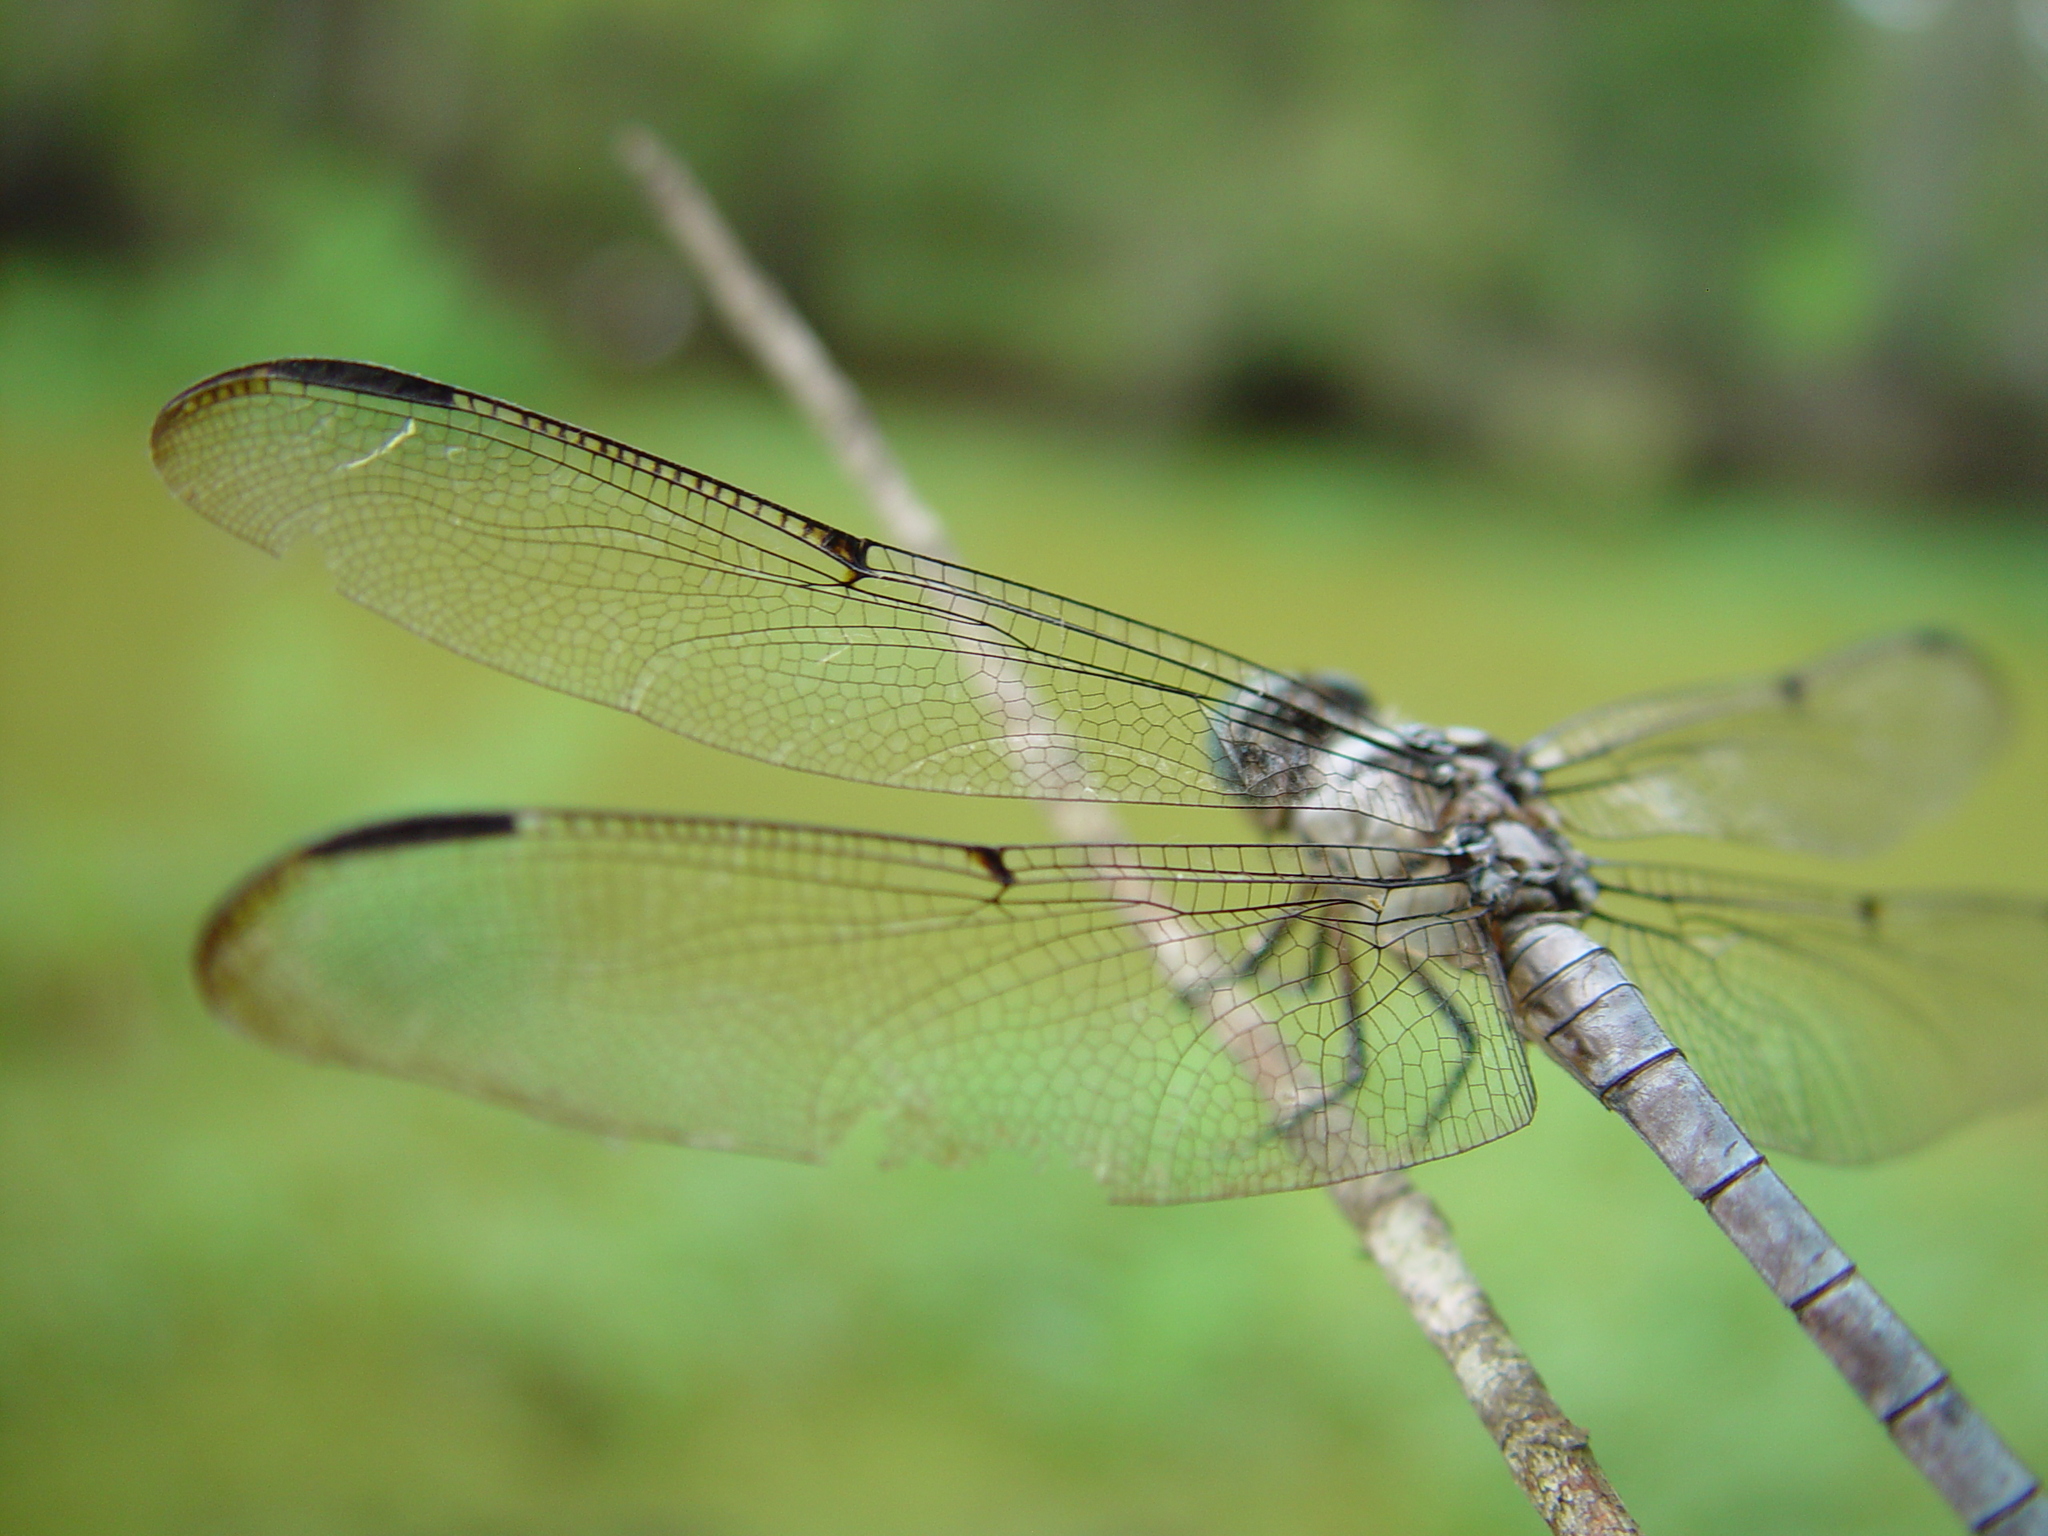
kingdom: Animalia
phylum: Arthropoda
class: Insecta
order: Odonata
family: Libellulidae
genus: Libellula
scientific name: Libellula vibrans
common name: Great blue skimmer
